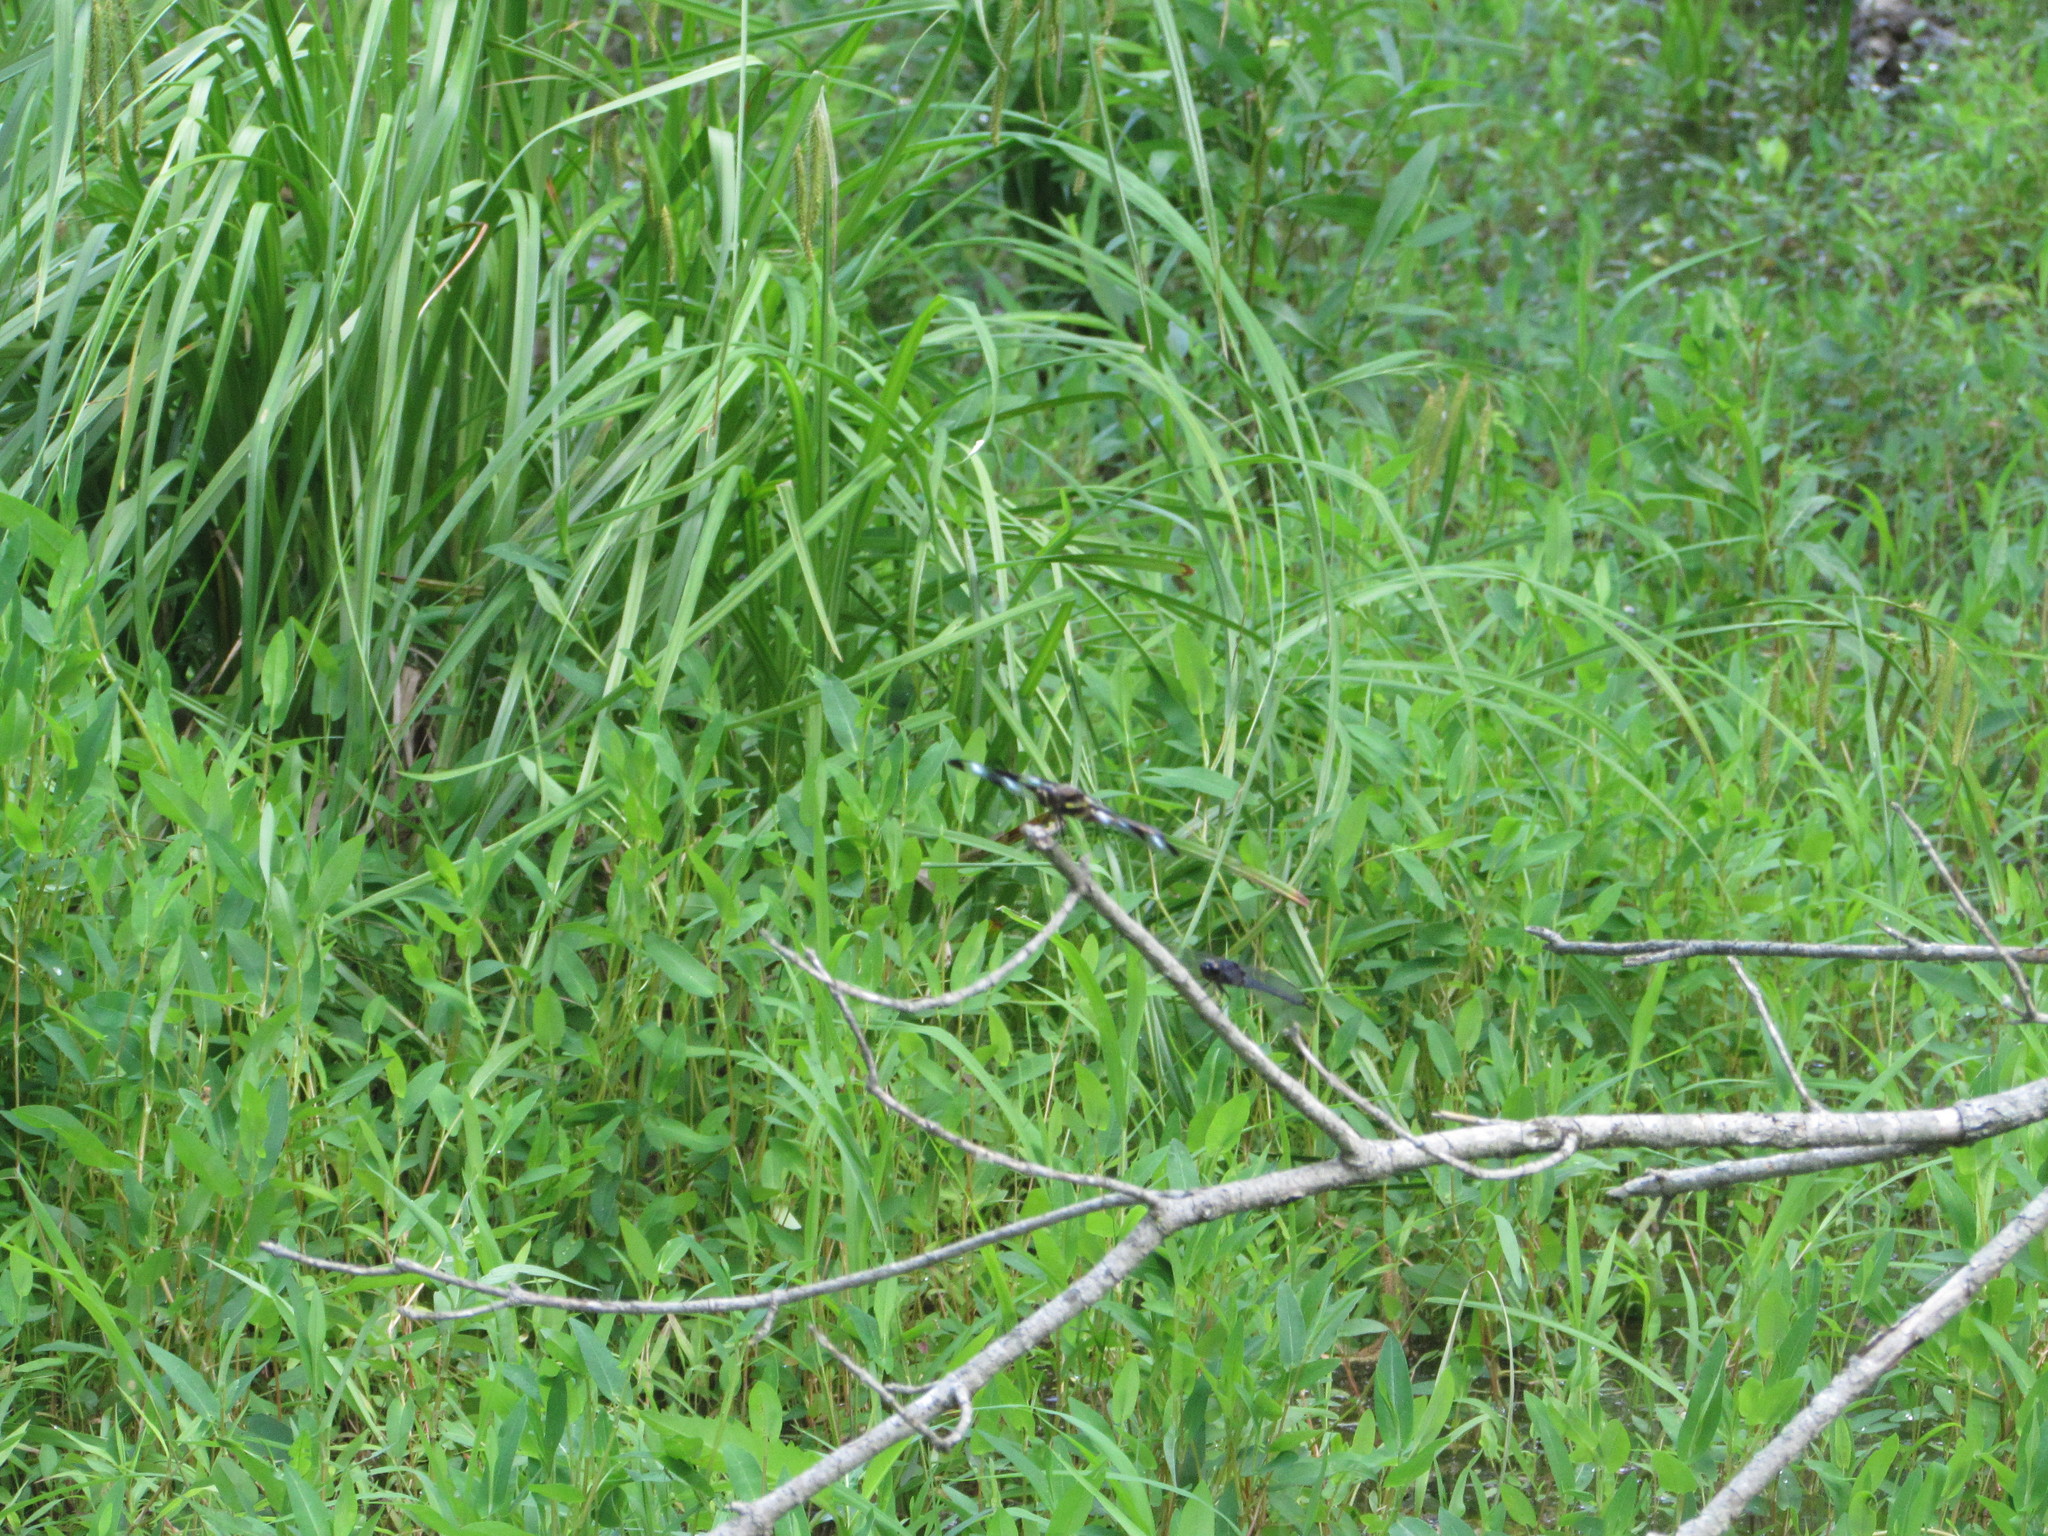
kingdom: Animalia
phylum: Arthropoda
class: Insecta
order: Odonata
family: Libellulidae
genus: Libellula
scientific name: Libellula pulchella
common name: Twelve-spotted skimmer
